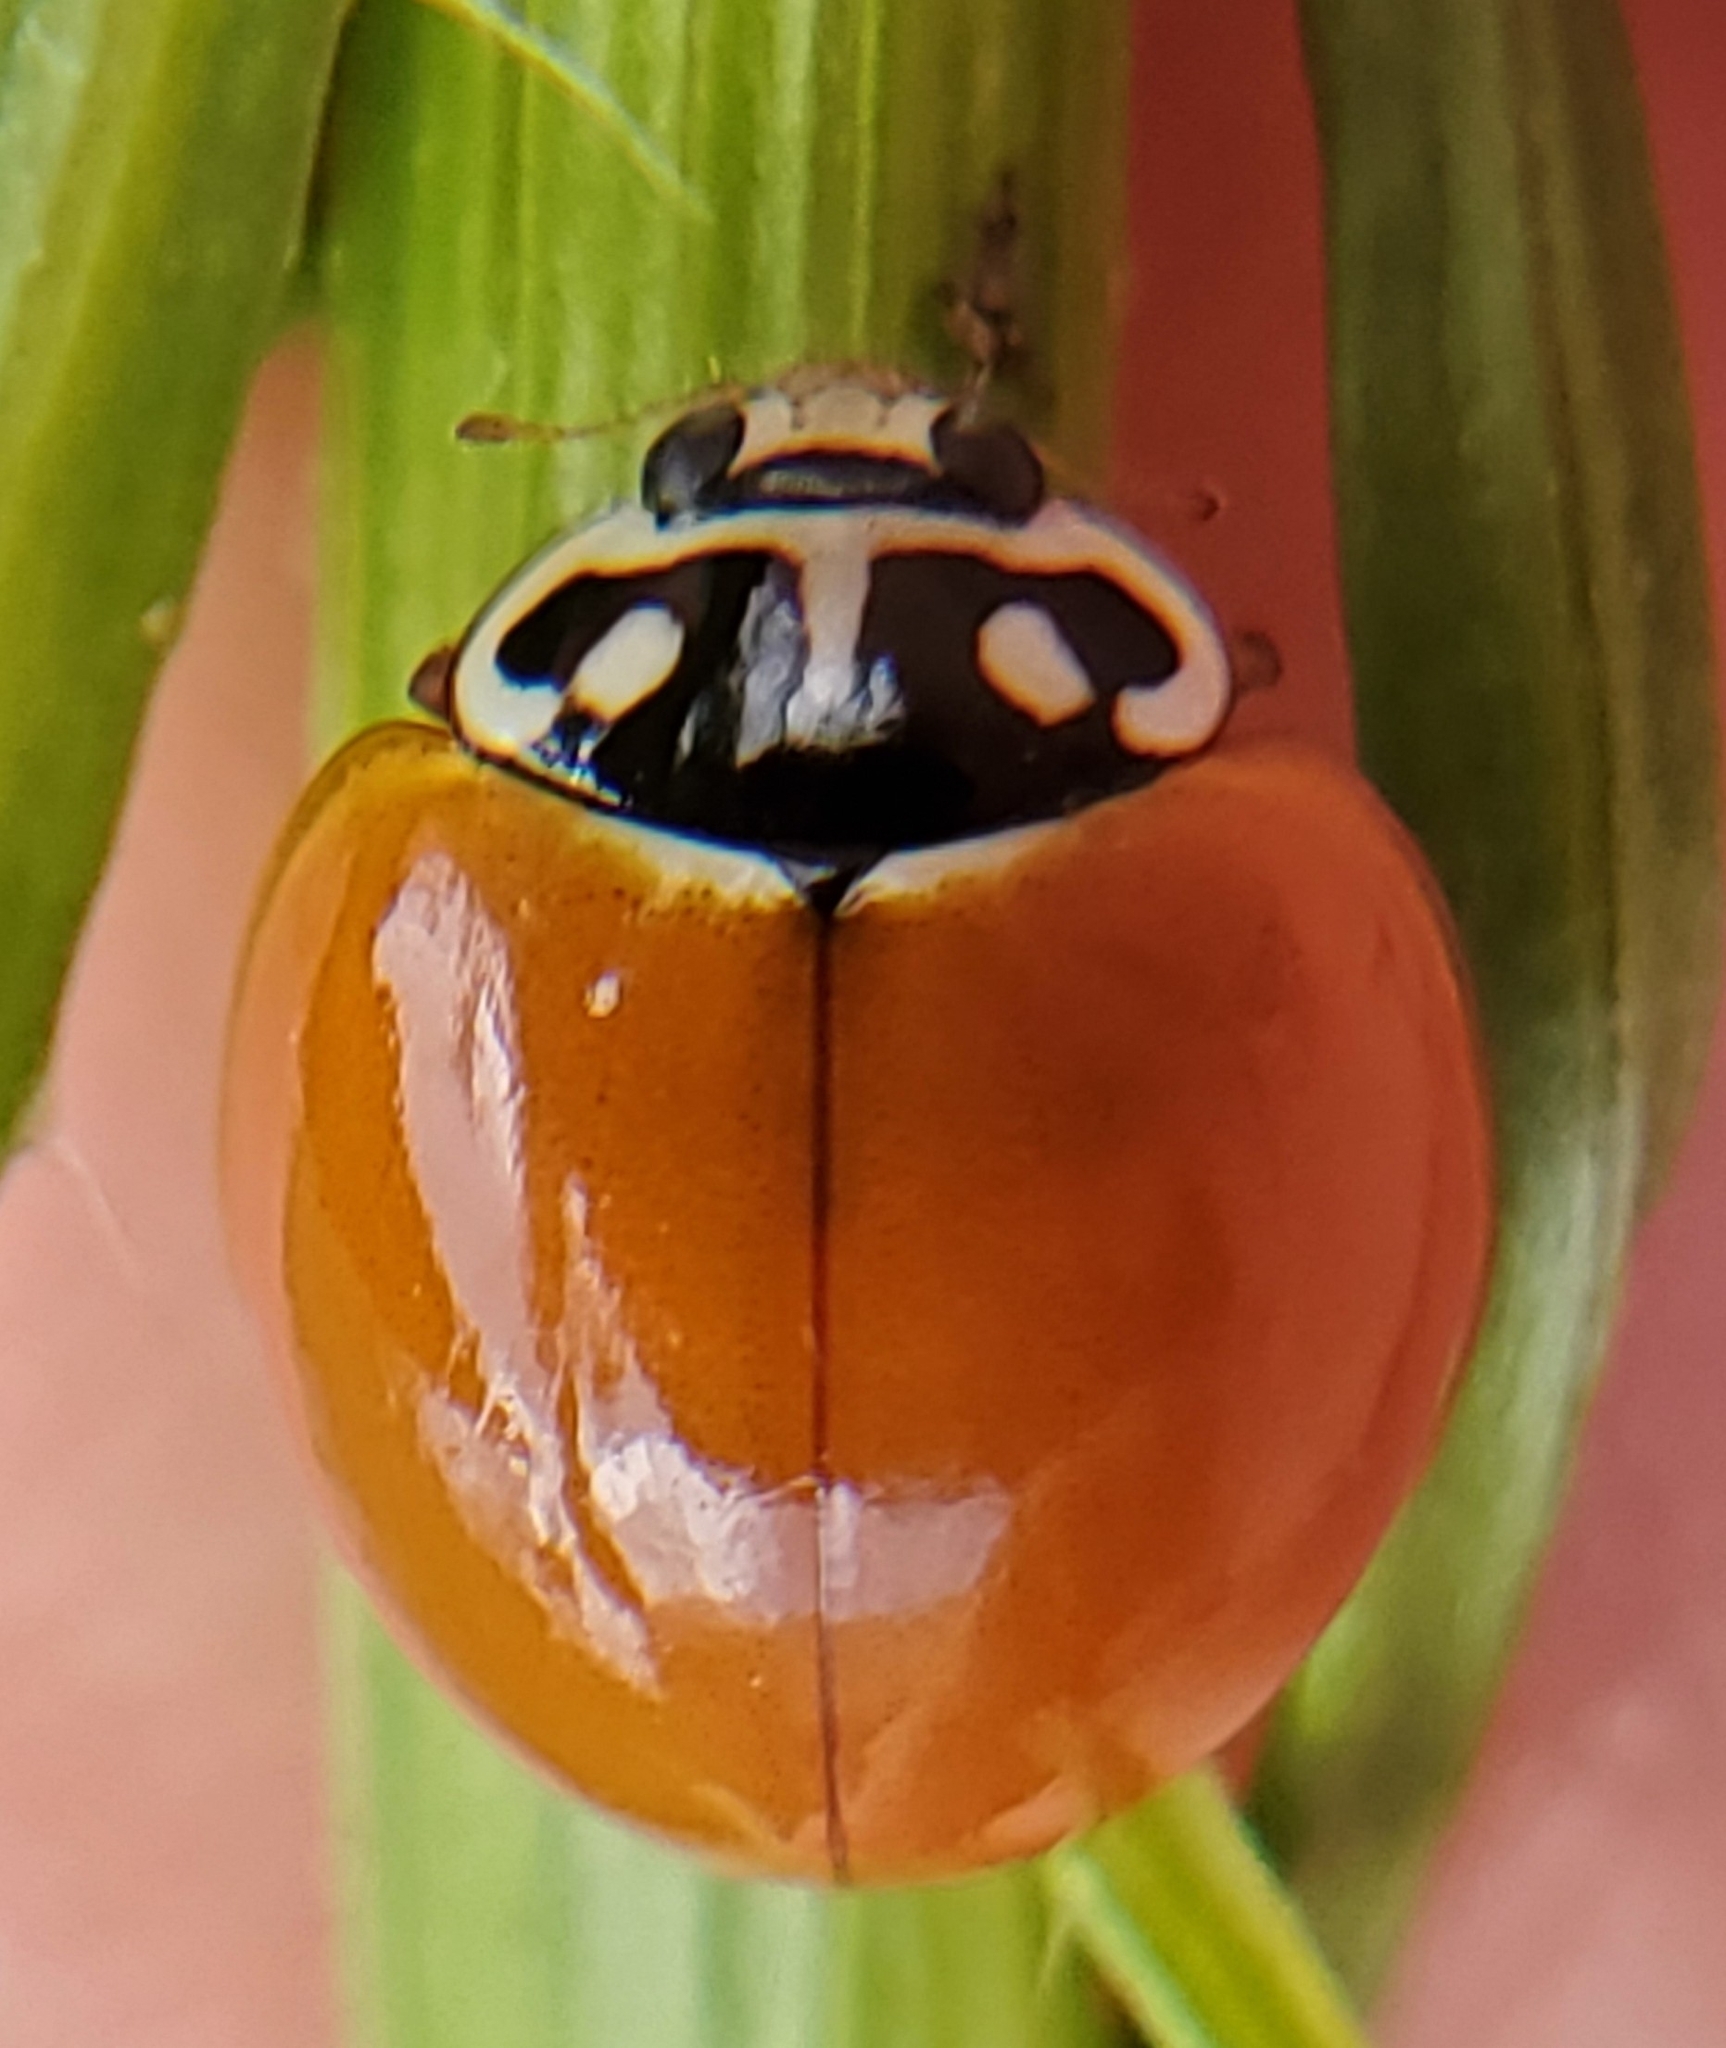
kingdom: Animalia
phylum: Arthropoda
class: Insecta
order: Coleoptera
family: Coccinellidae
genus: Cycloneda
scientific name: Cycloneda sanguinea
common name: Ladybird beetle
